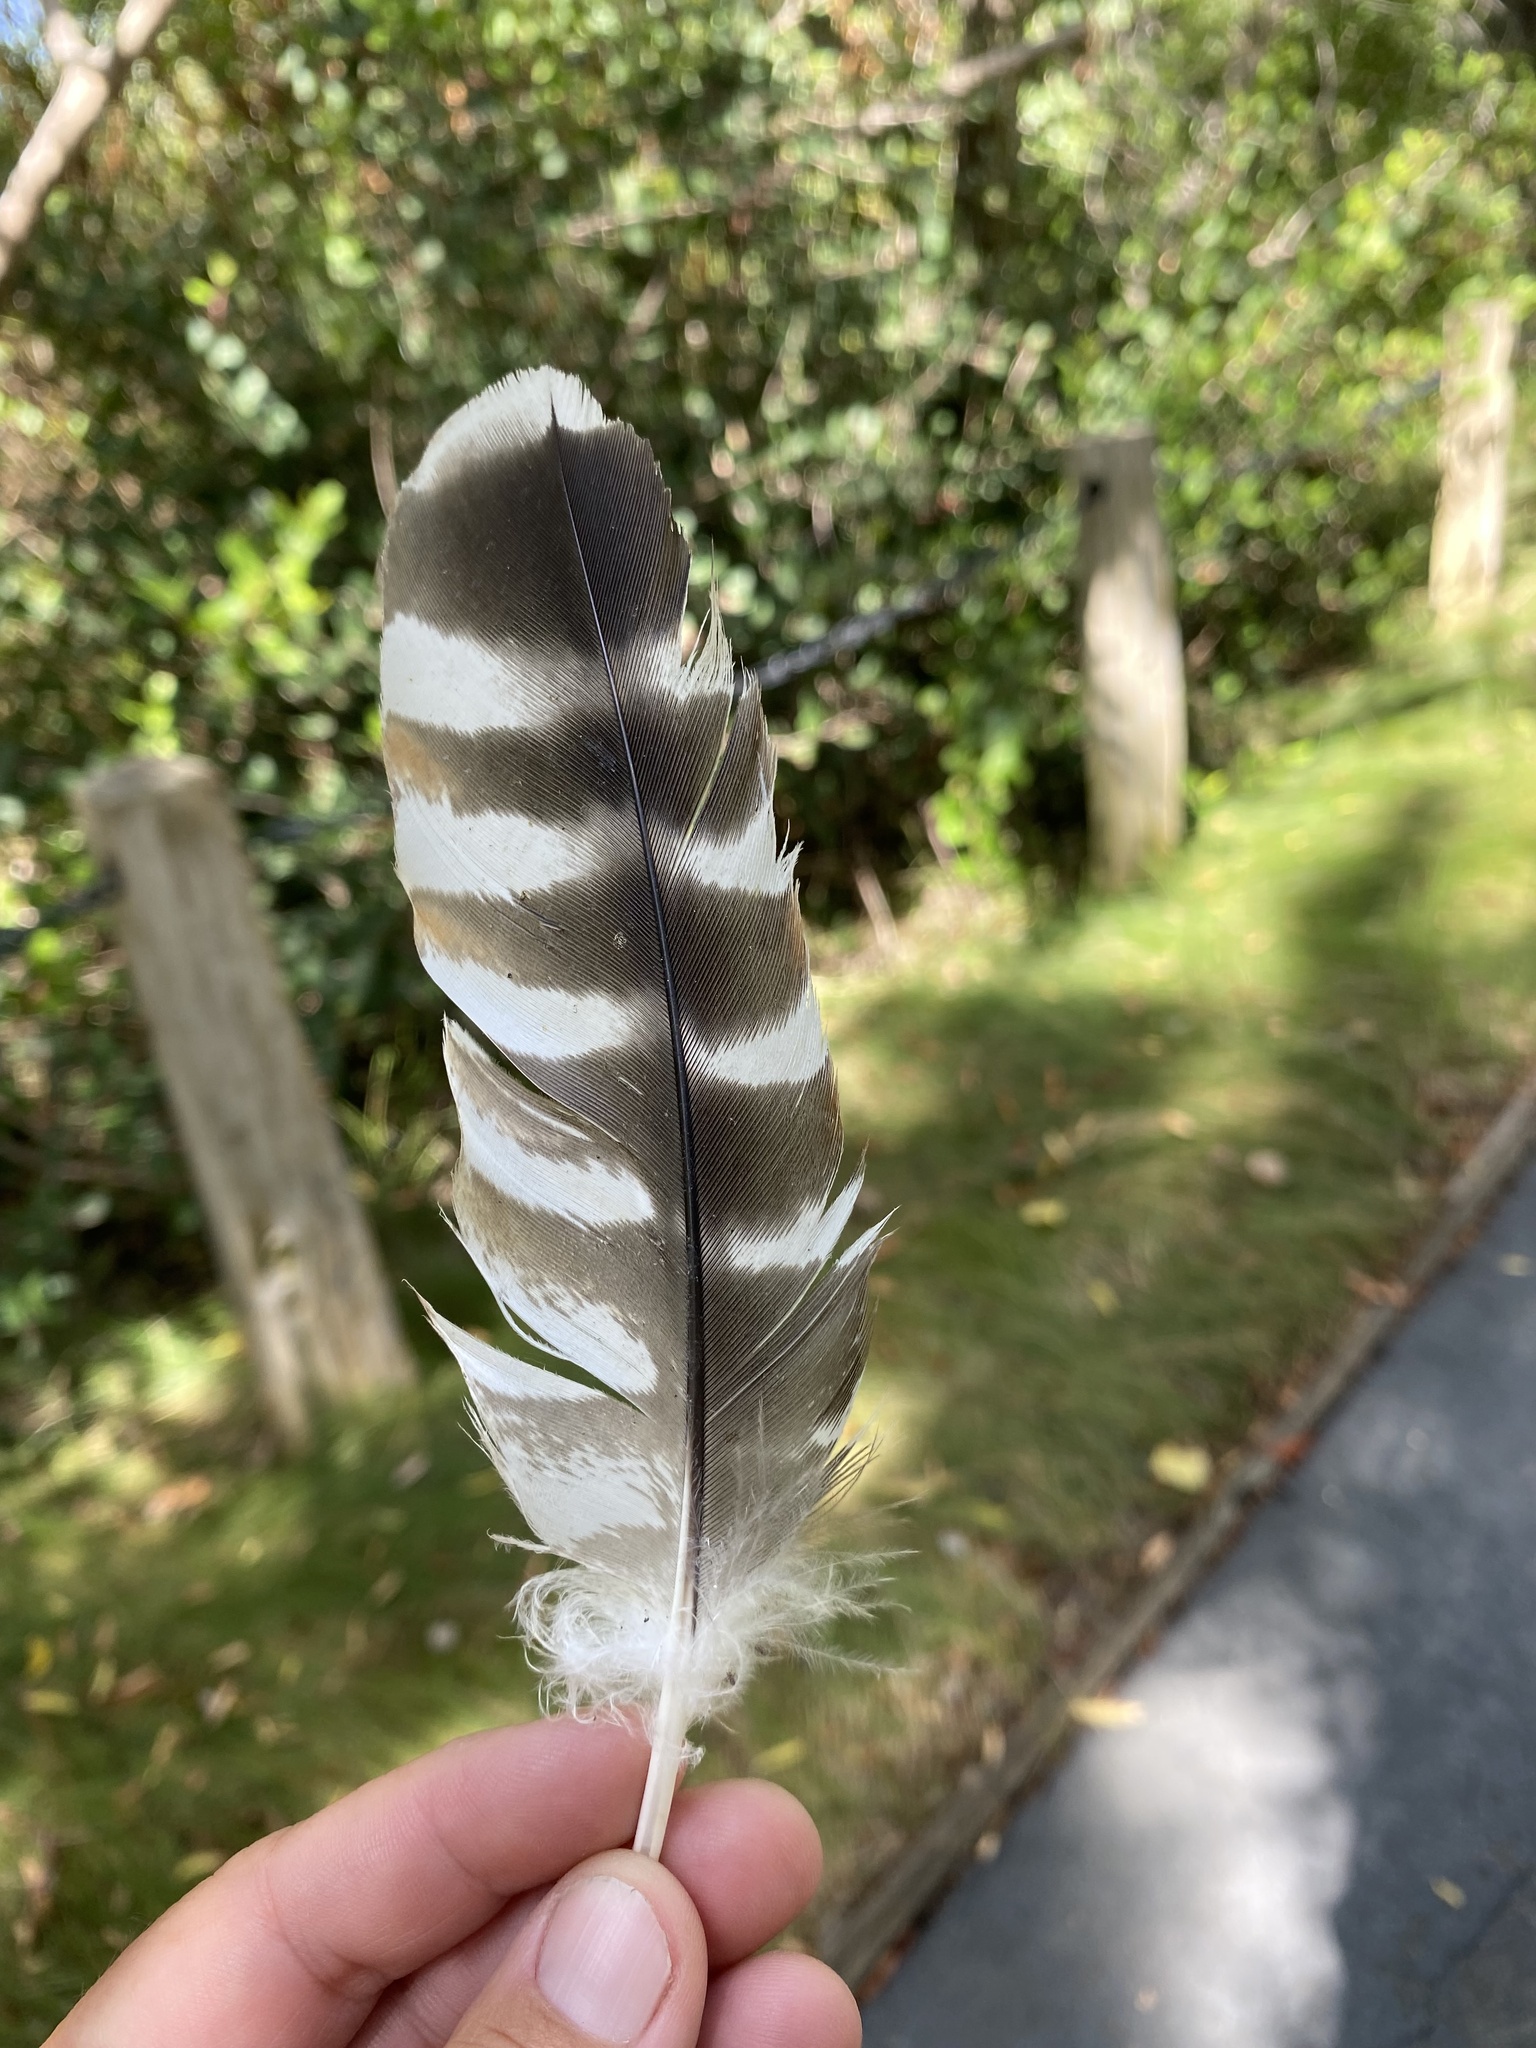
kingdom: Animalia
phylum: Chordata
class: Aves
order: Accipitriformes
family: Accipitridae
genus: Buteo
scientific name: Buteo lineatus
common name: Red-shouldered hawk
